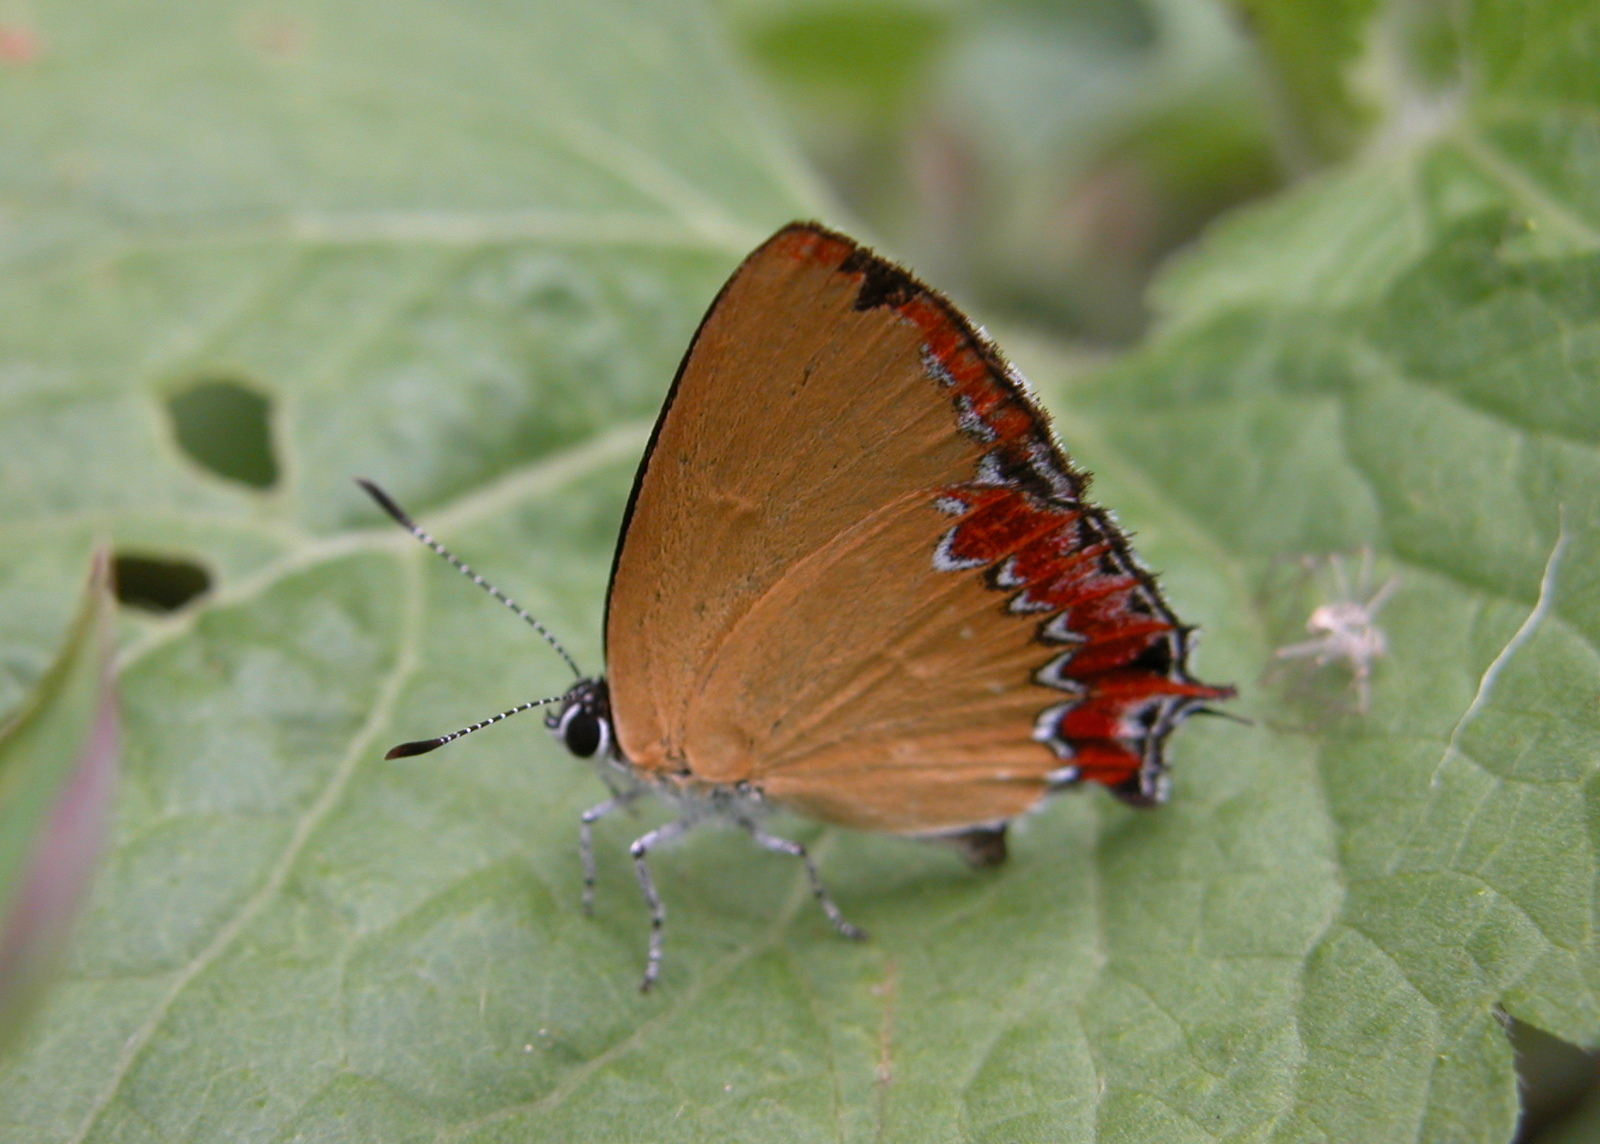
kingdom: Animalia
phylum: Arthropoda
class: Insecta
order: Lepidoptera
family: Lycaenidae
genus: Heliophorus
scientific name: Heliophorus epicles
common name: Purple sapphire
